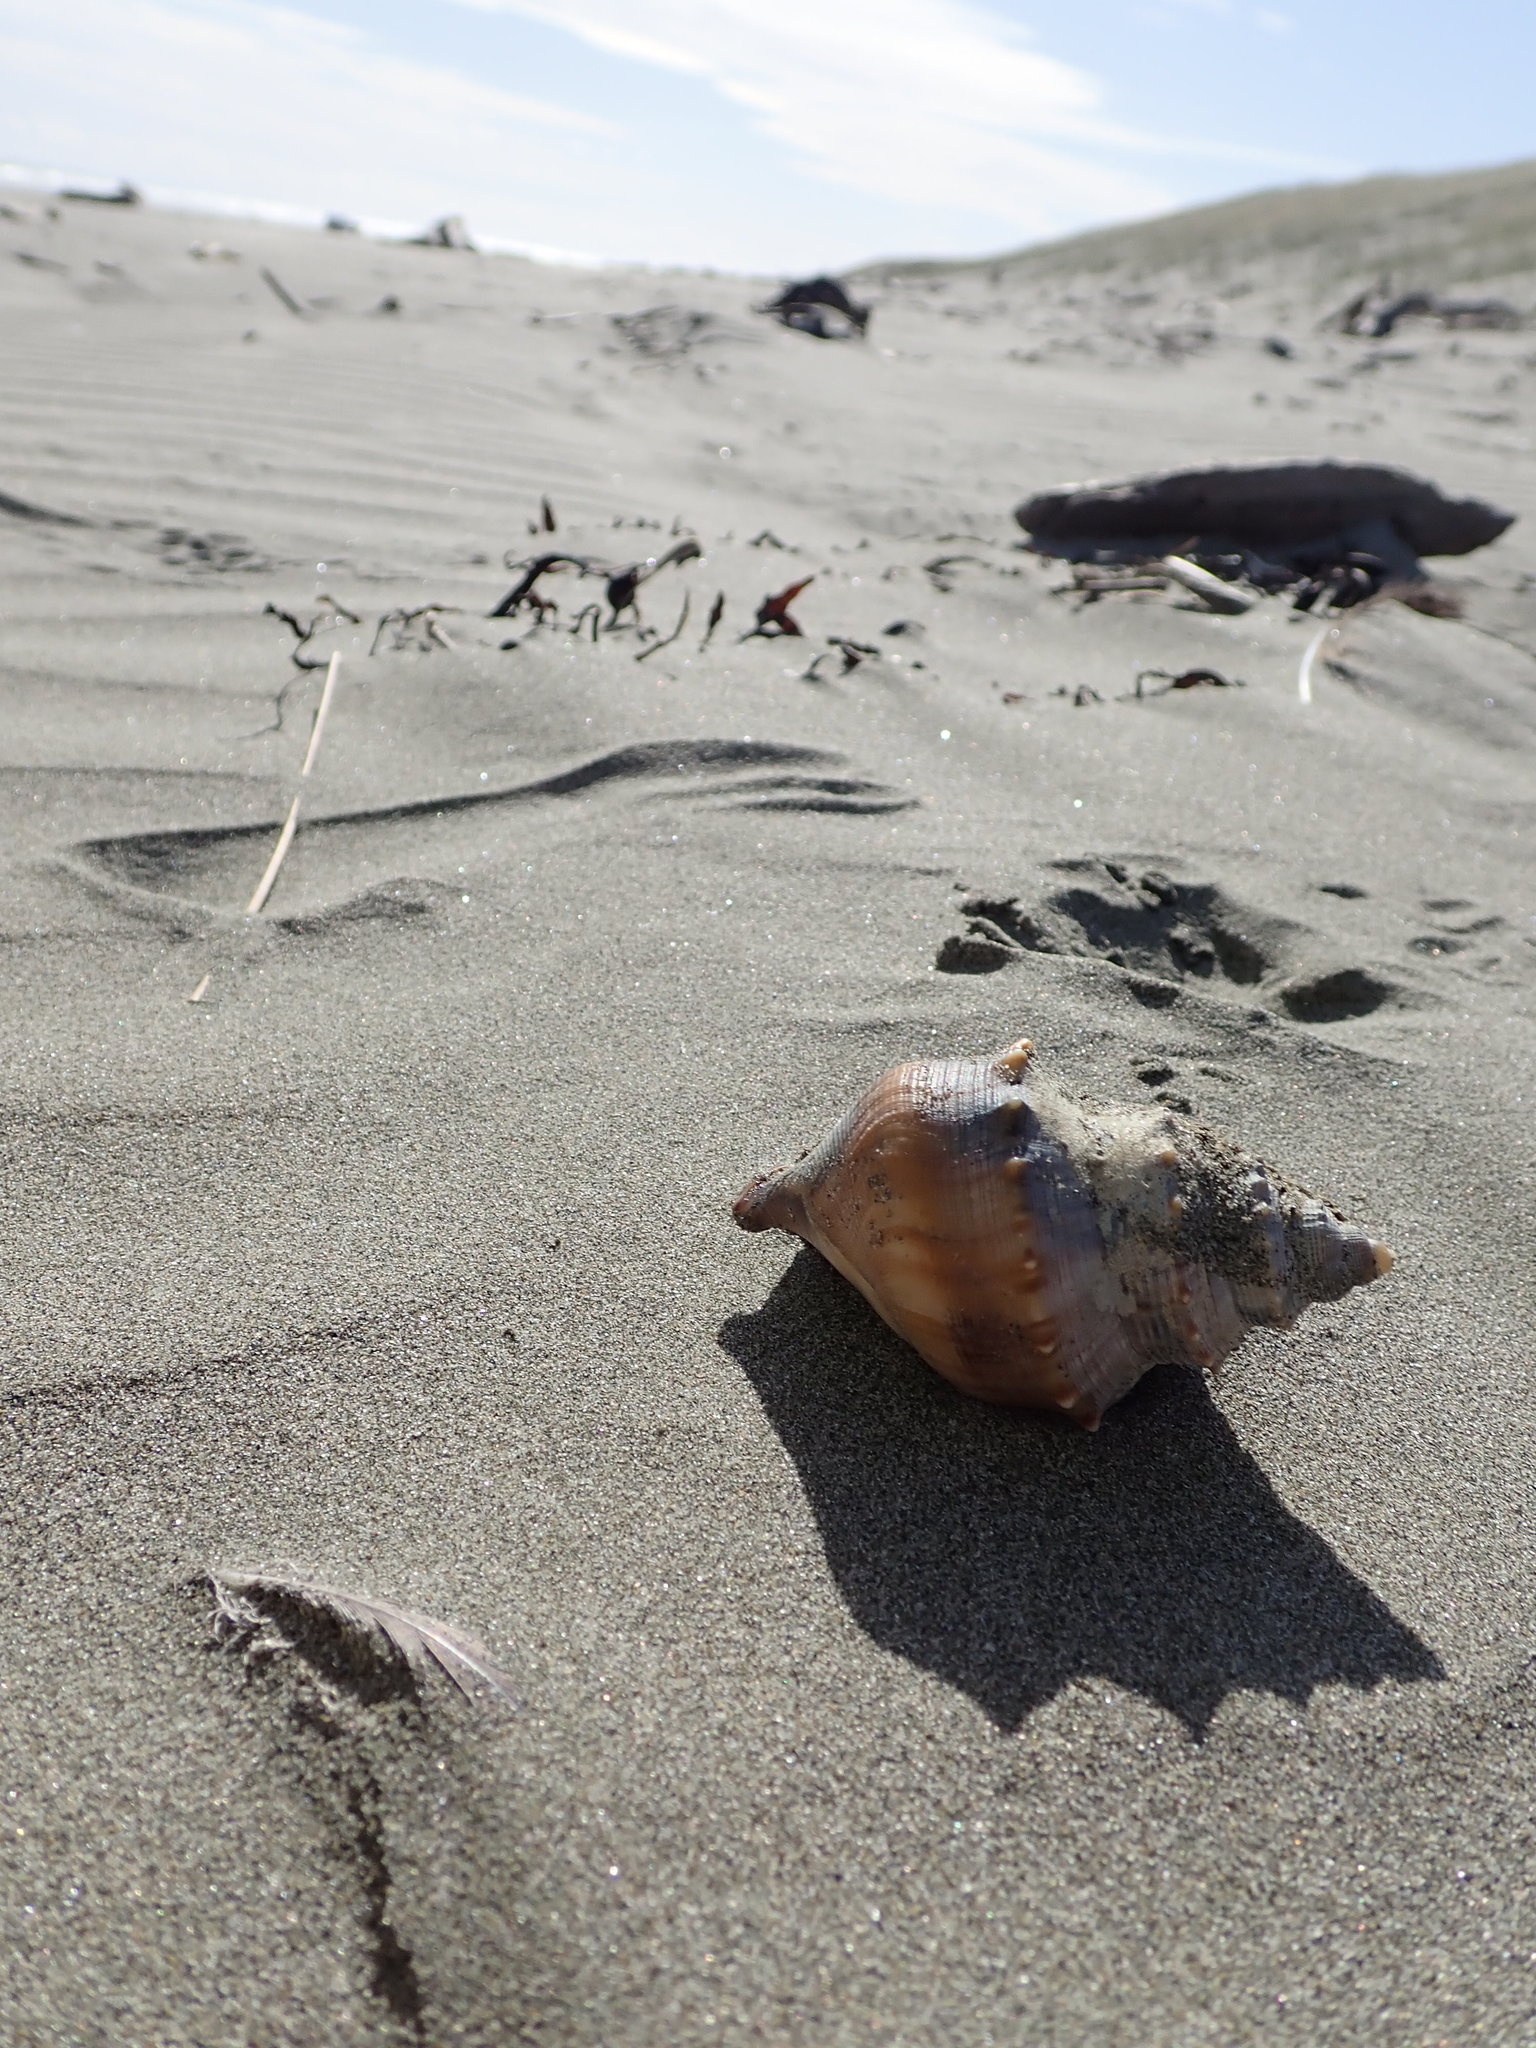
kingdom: Animalia
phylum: Mollusca
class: Gastropoda
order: Littorinimorpha
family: Struthiolariidae
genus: Struthiolaria
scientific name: Struthiolaria papulosa
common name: Large ostrich foot
